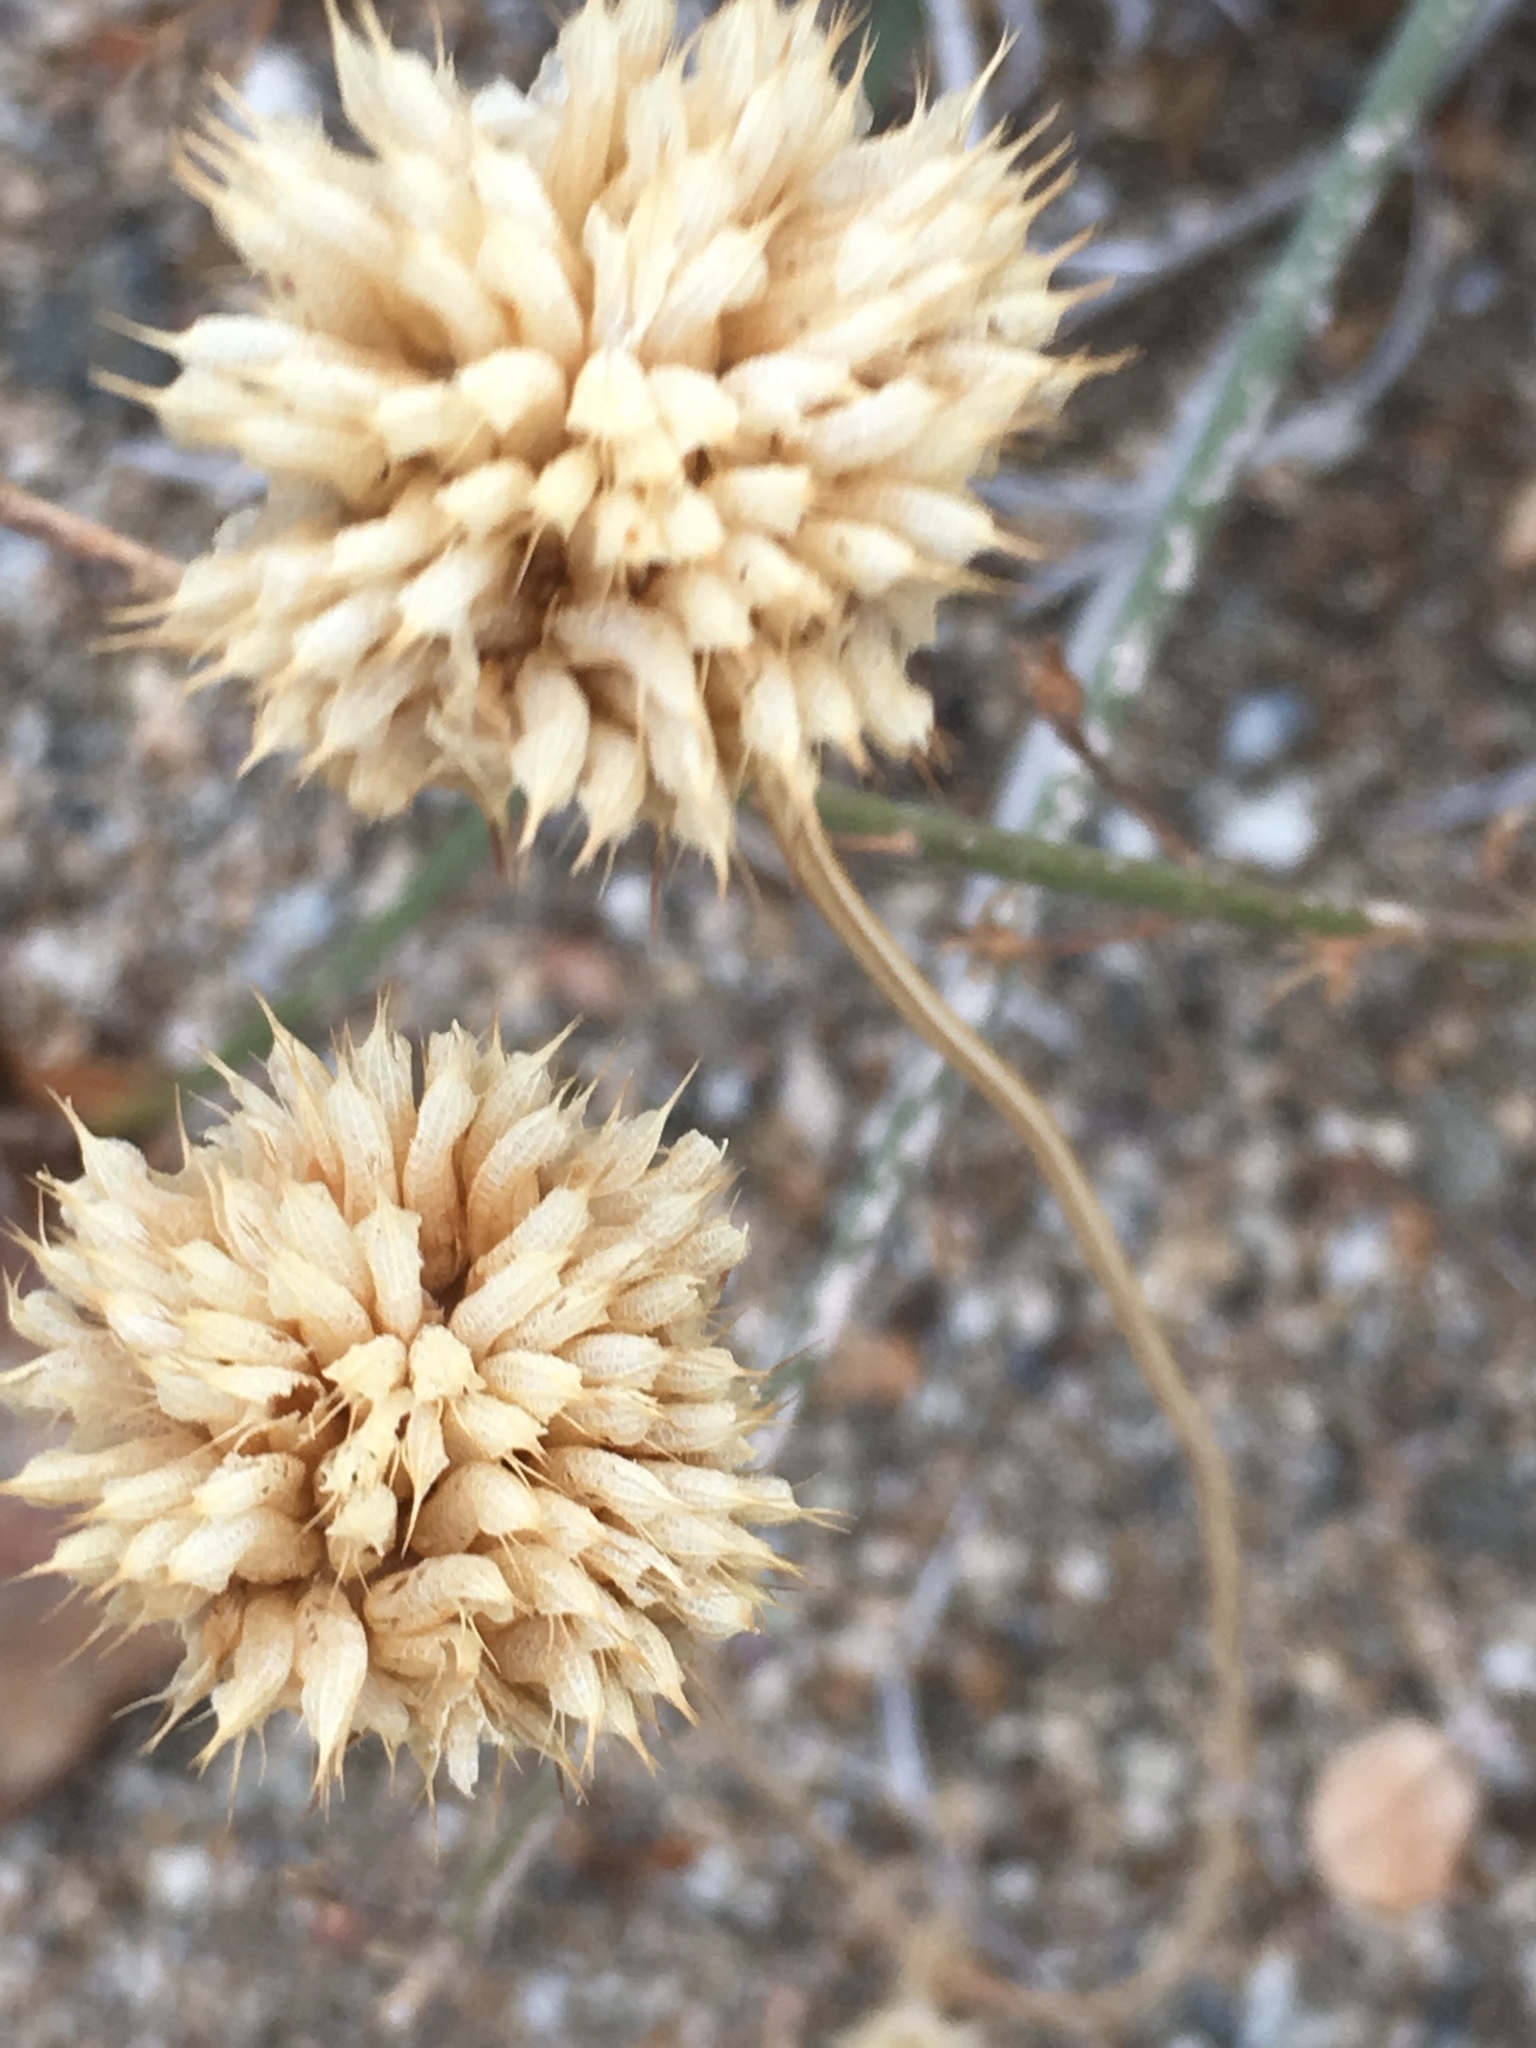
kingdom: Plantae
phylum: Tracheophyta
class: Magnoliopsida
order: Lamiales
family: Lamiaceae
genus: Salvia
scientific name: Salvia columbariae
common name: Chia
